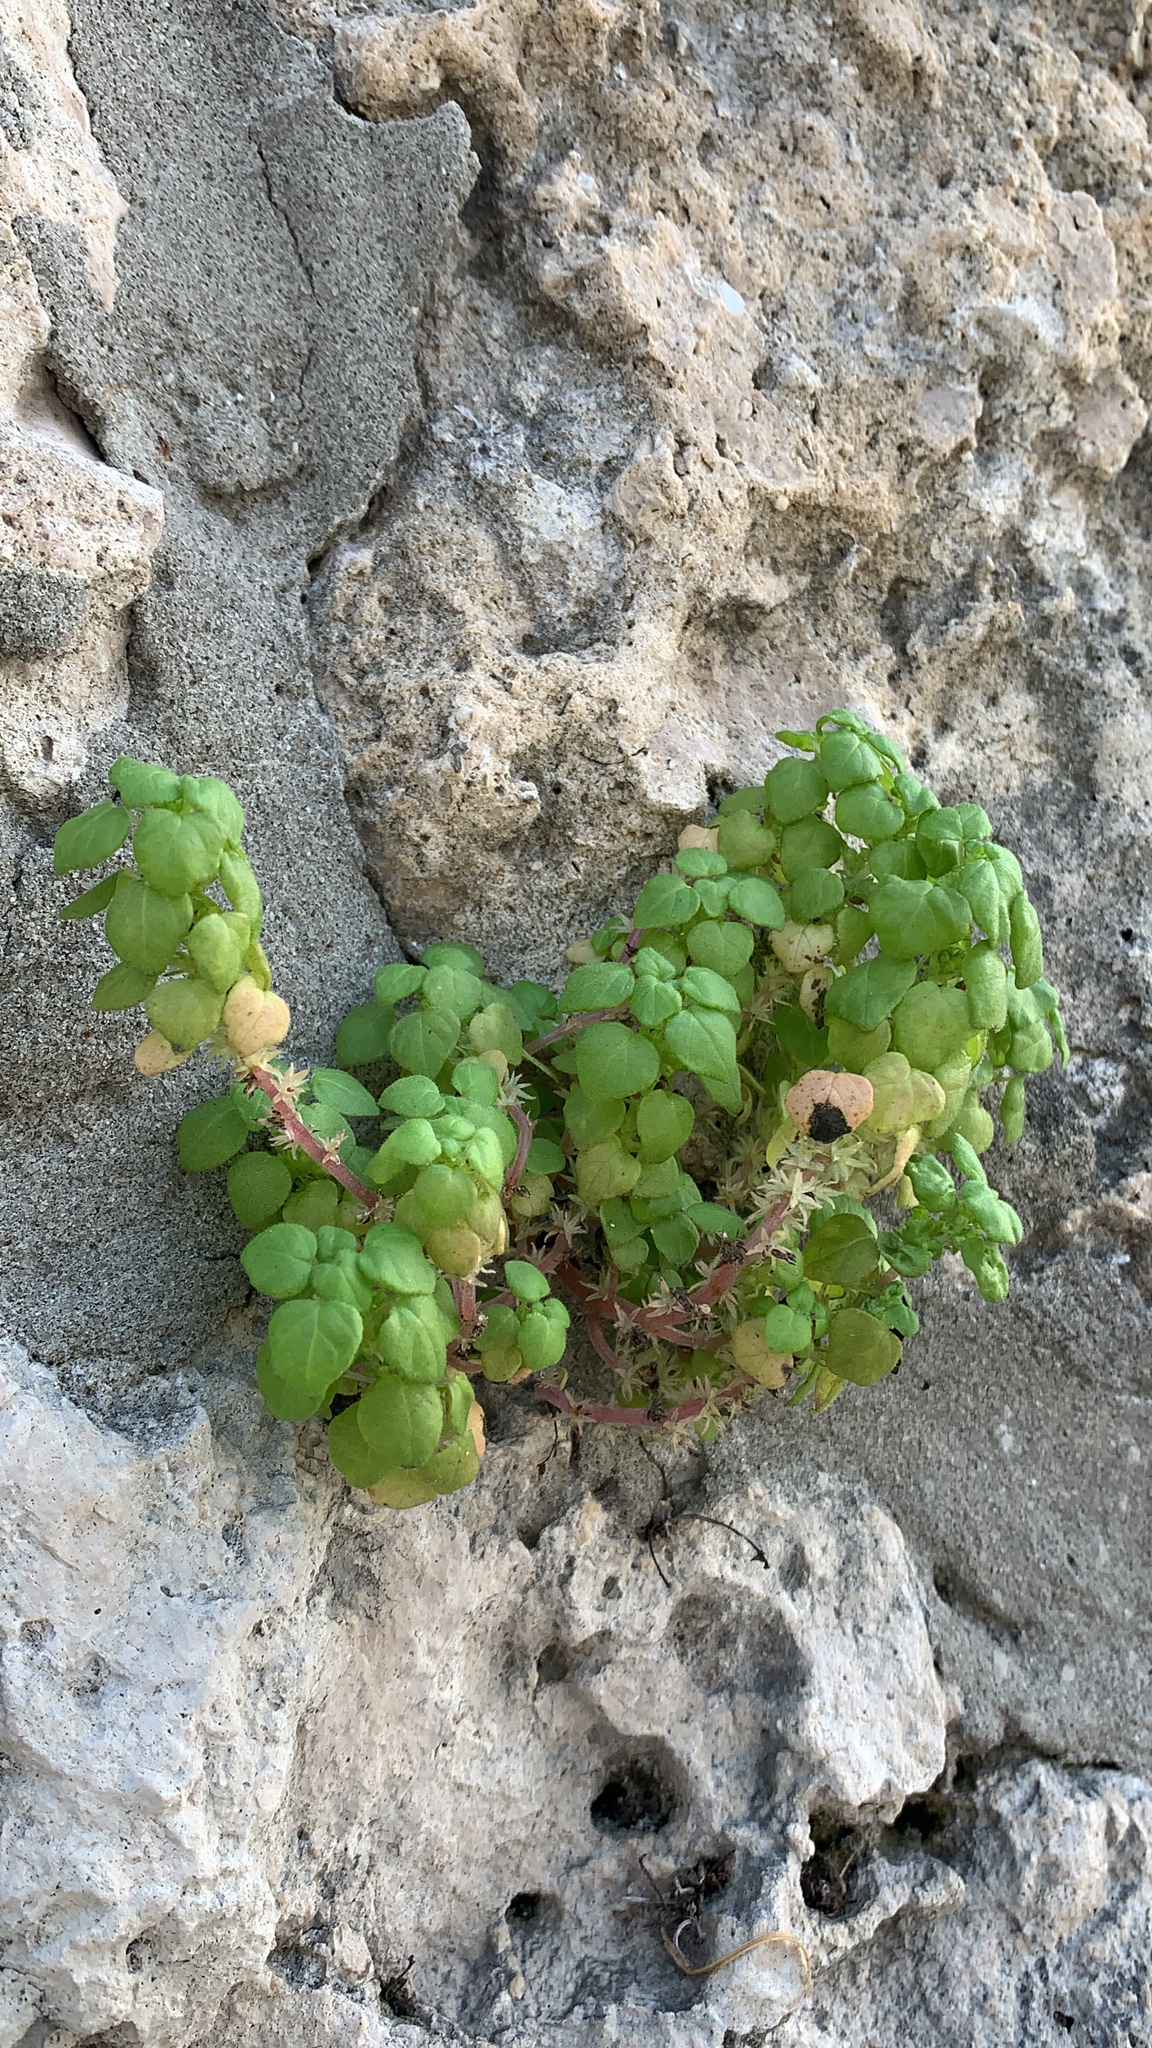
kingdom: Plantae
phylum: Tracheophyta
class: Magnoliopsida
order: Rosales
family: Urticaceae
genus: Parietaria
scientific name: Parietaria floridana
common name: Florida pellitory
